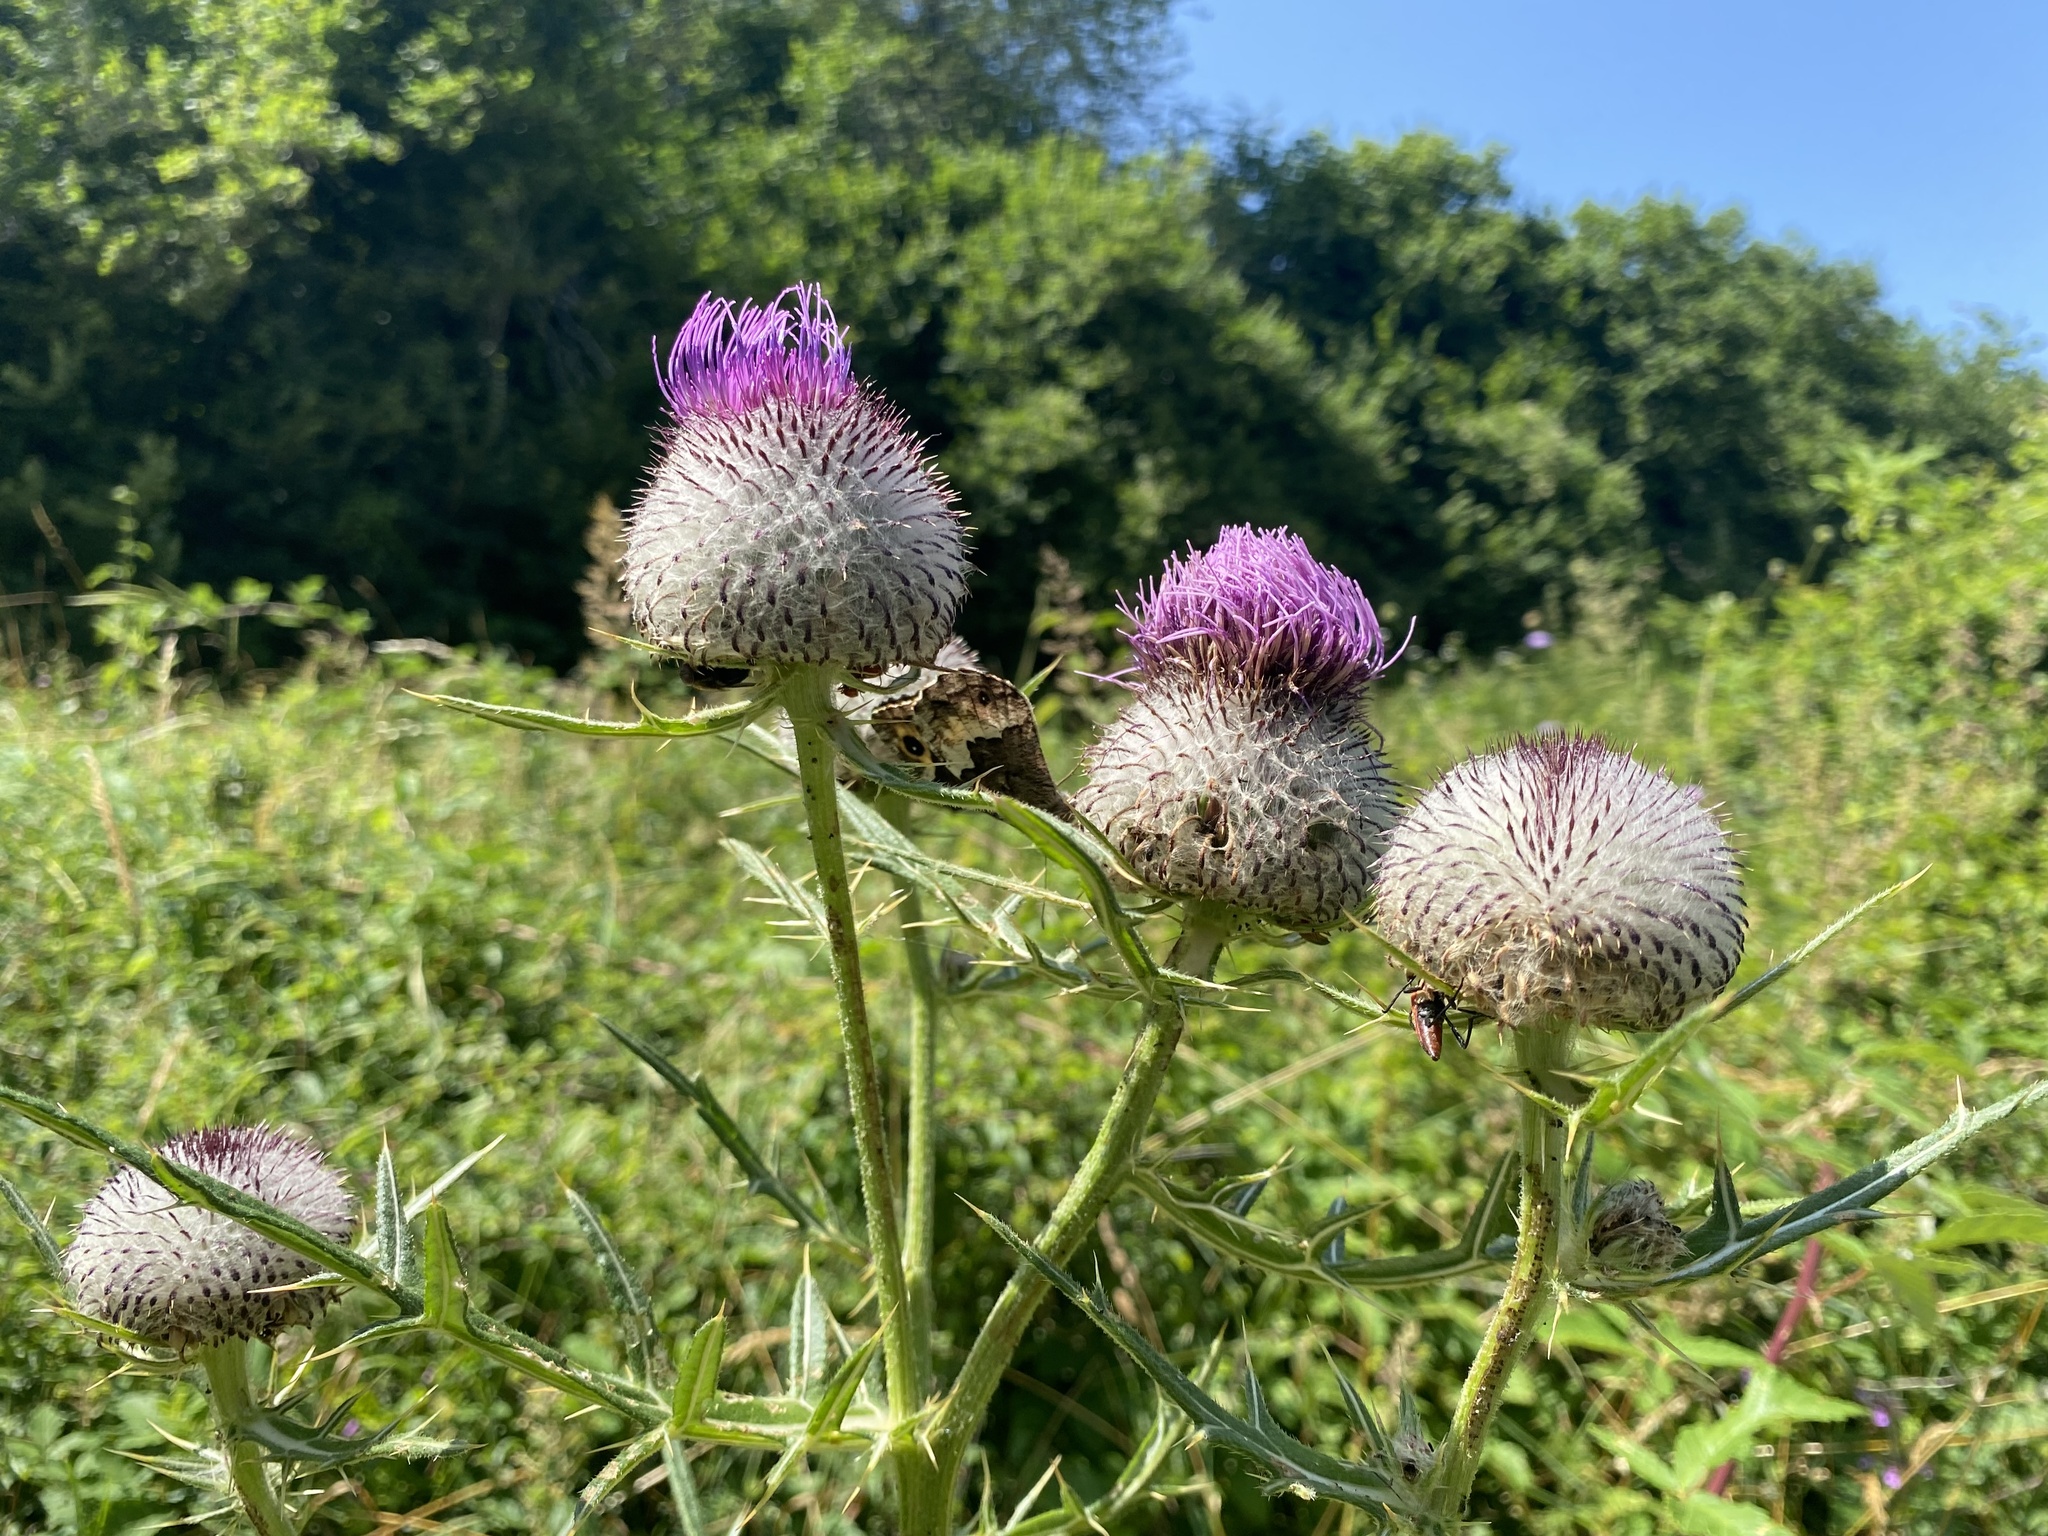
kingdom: Plantae
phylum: Tracheophyta
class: Magnoliopsida
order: Asterales
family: Asteraceae
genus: Lophiolepis
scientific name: Lophiolepis eriophora
